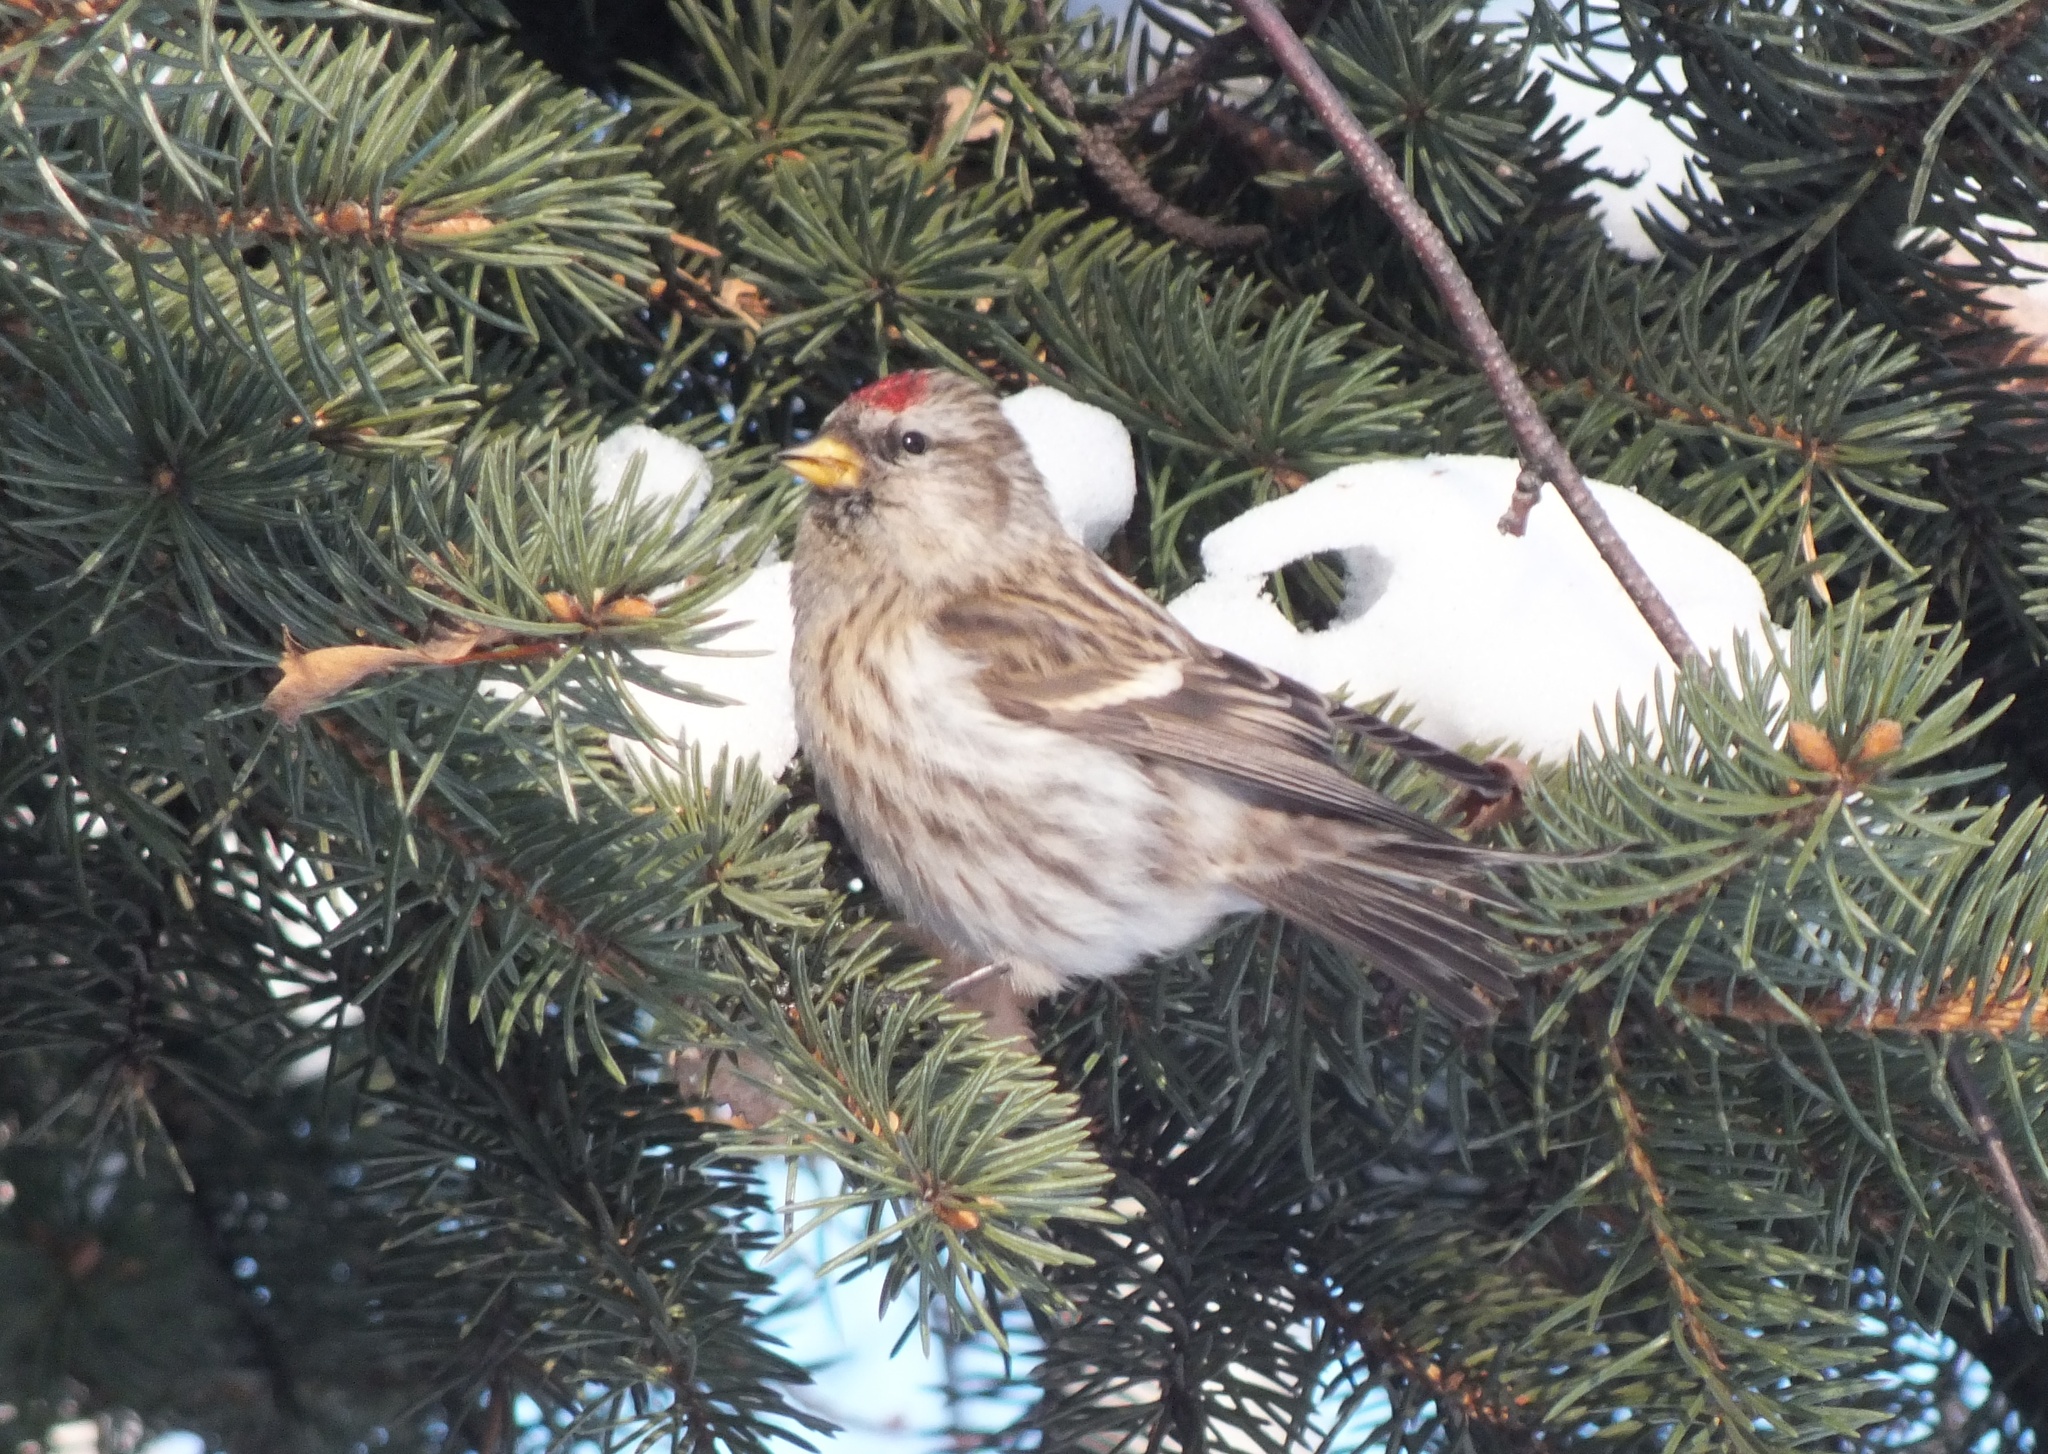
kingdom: Animalia
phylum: Chordata
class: Aves
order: Passeriformes
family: Fringillidae
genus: Acanthis
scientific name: Acanthis flammea
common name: Common redpoll
